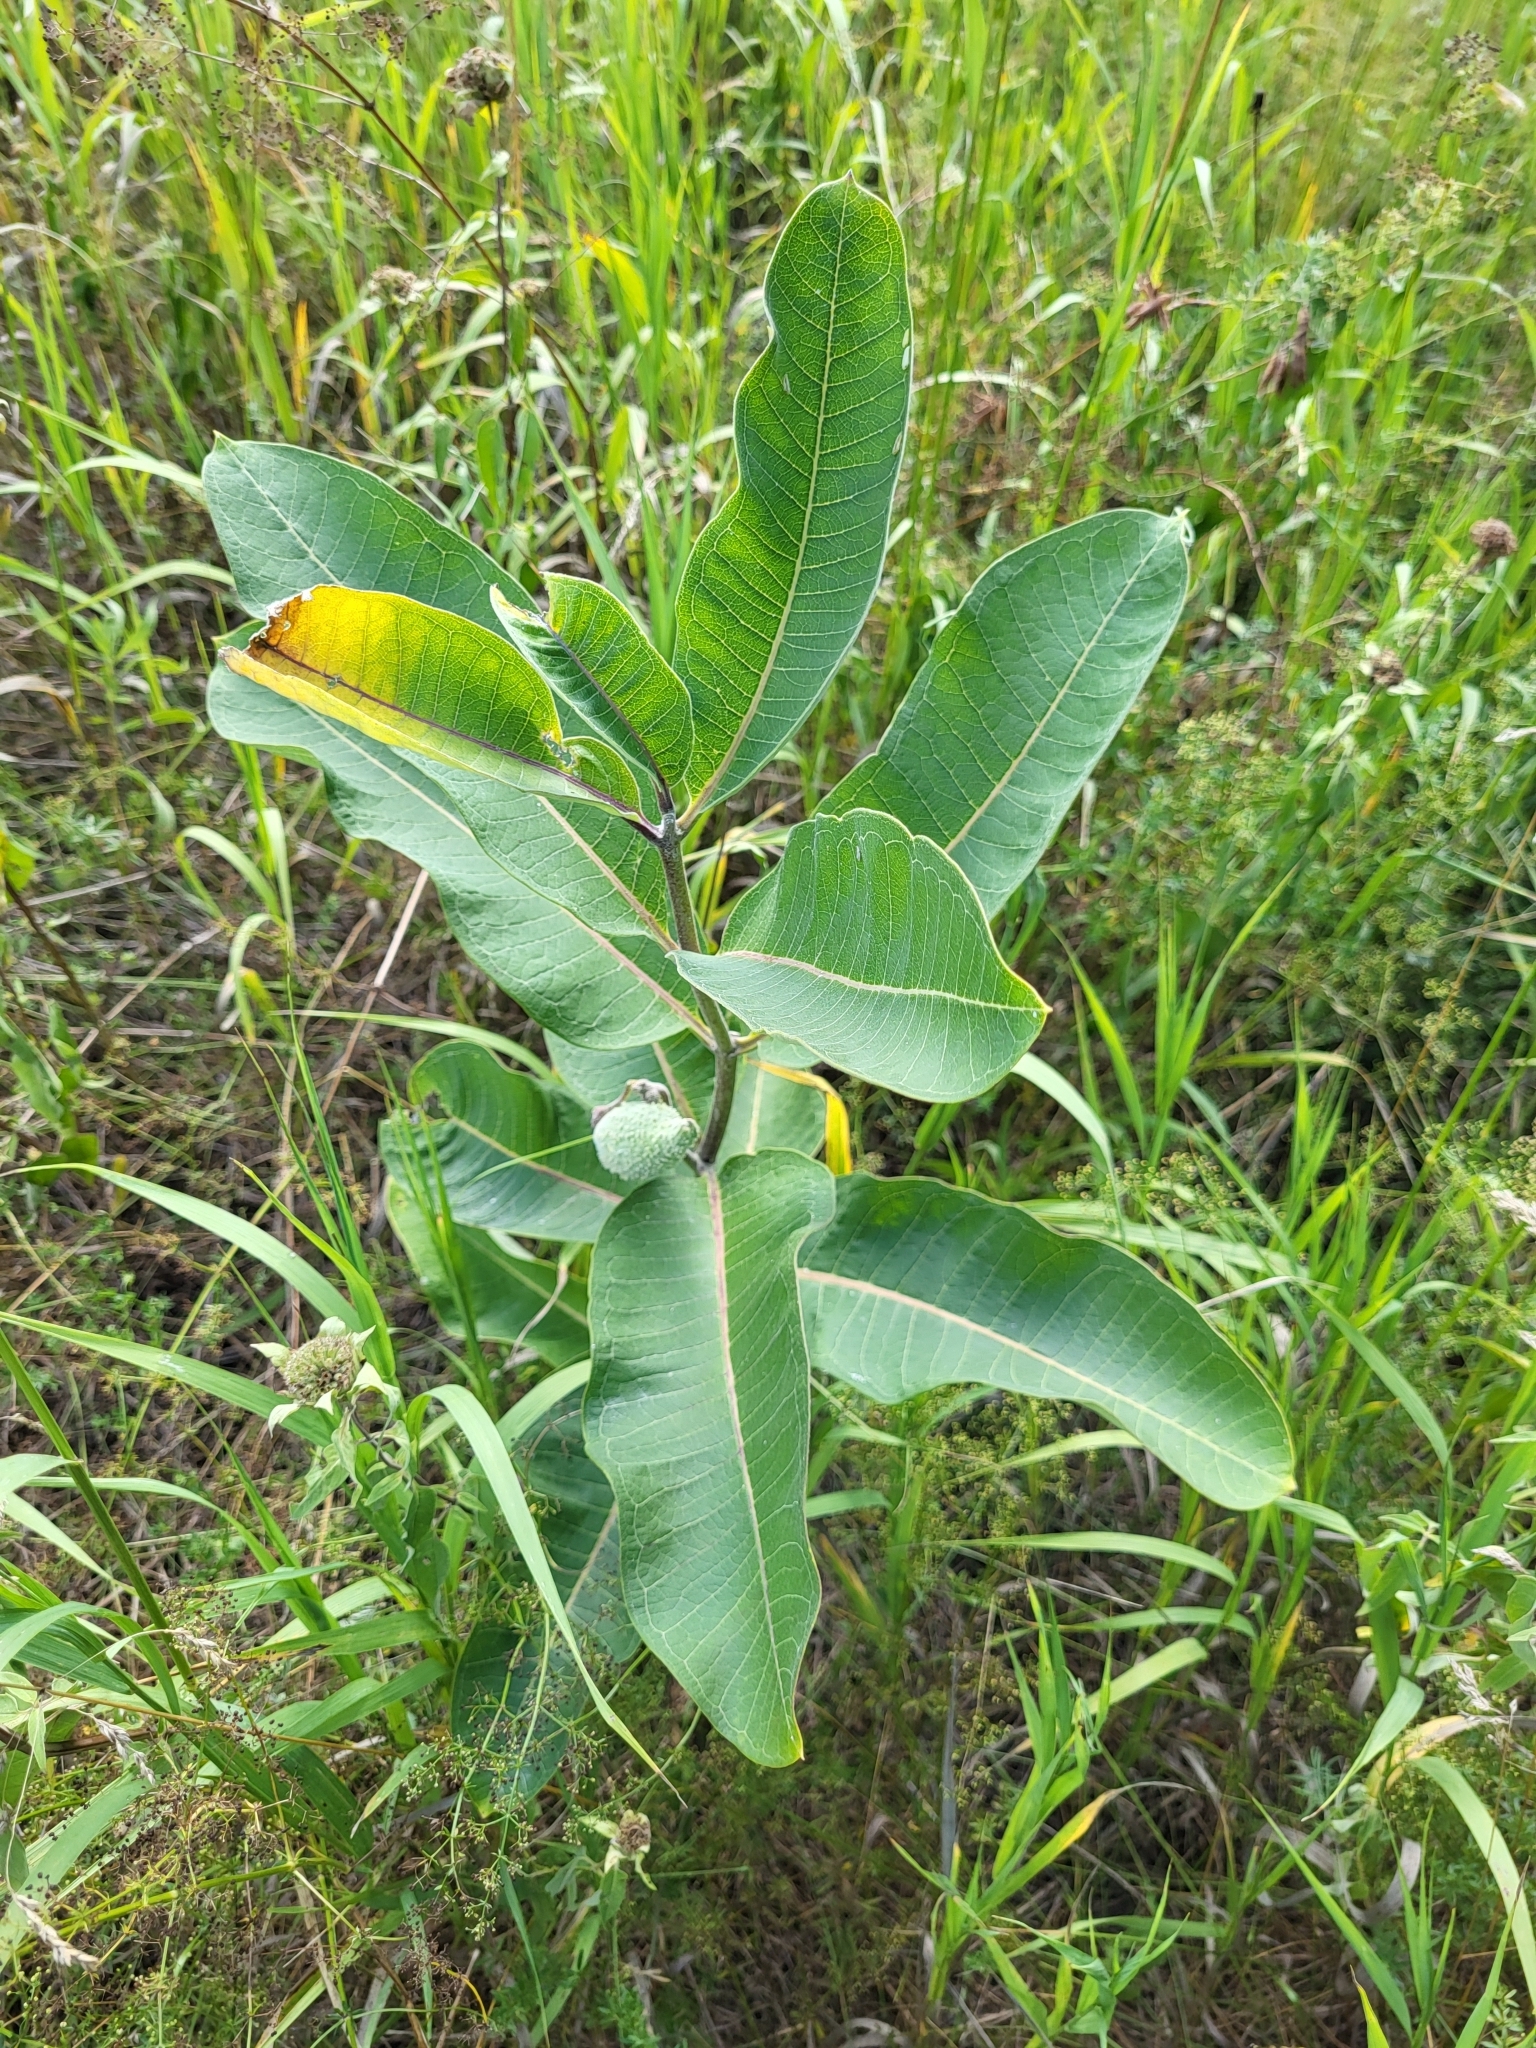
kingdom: Plantae
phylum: Tracheophyta
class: Magnoliopsida
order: Gentianales
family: Apocynaceae
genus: Asclepias
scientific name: Asclepias syriaca
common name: Common milkweed
